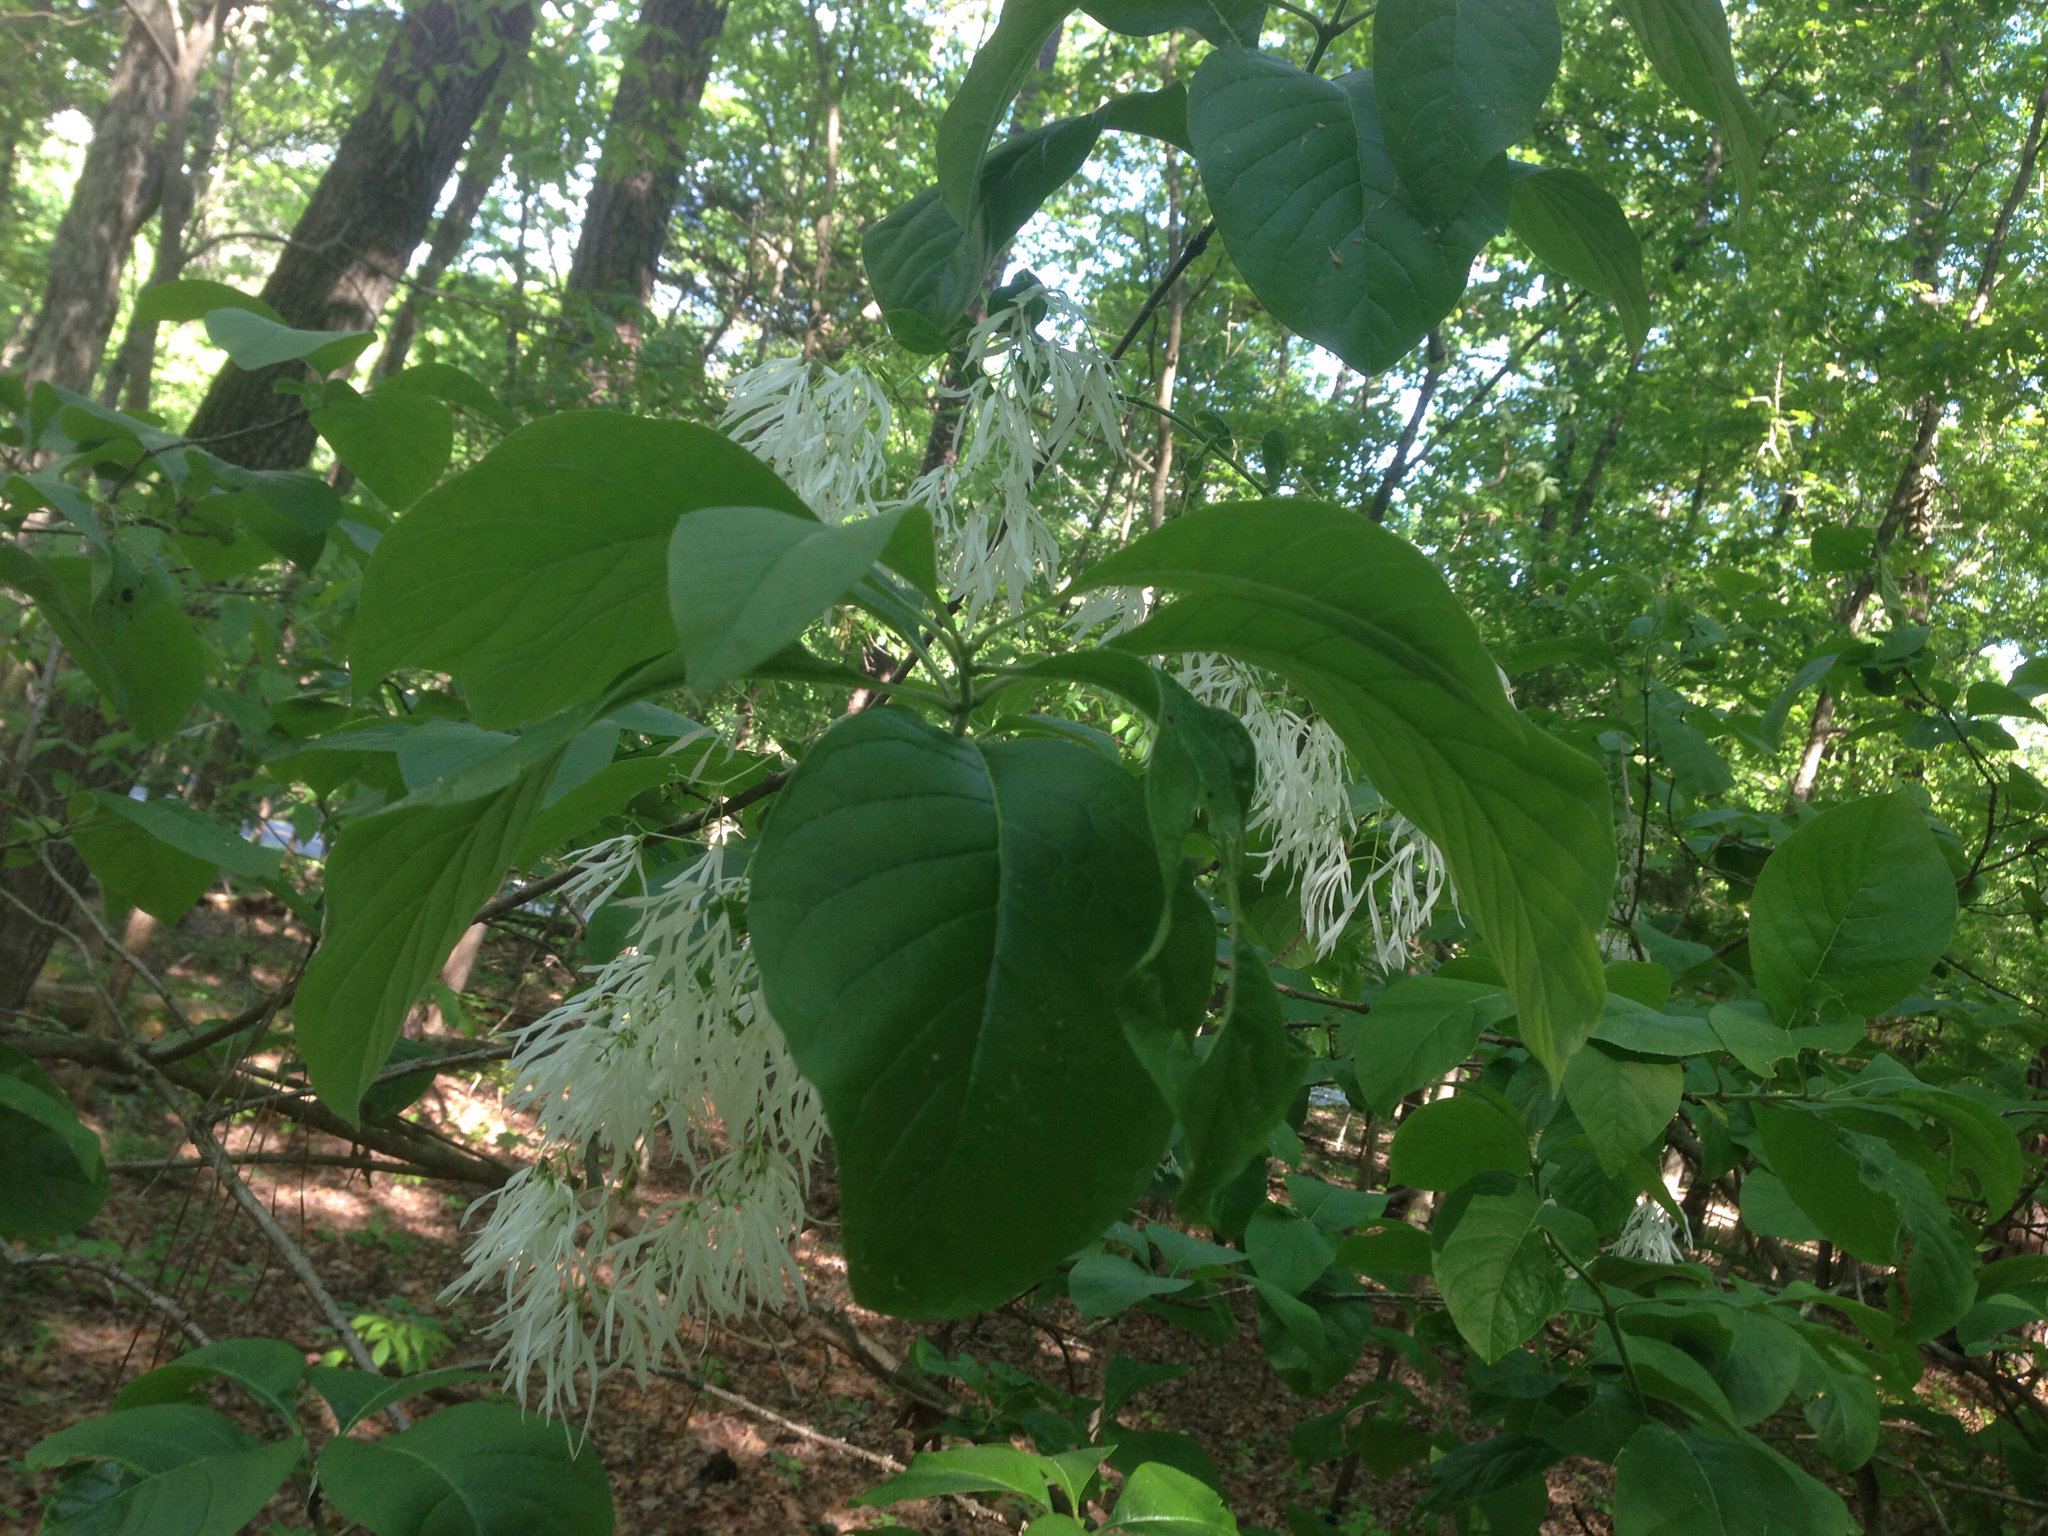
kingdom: Plantae
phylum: Tracheophyta
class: Magnoliopsida
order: Lamiales
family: Oleaceae
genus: Chionanthus
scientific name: Chionanthus virginicus
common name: American fringetree
